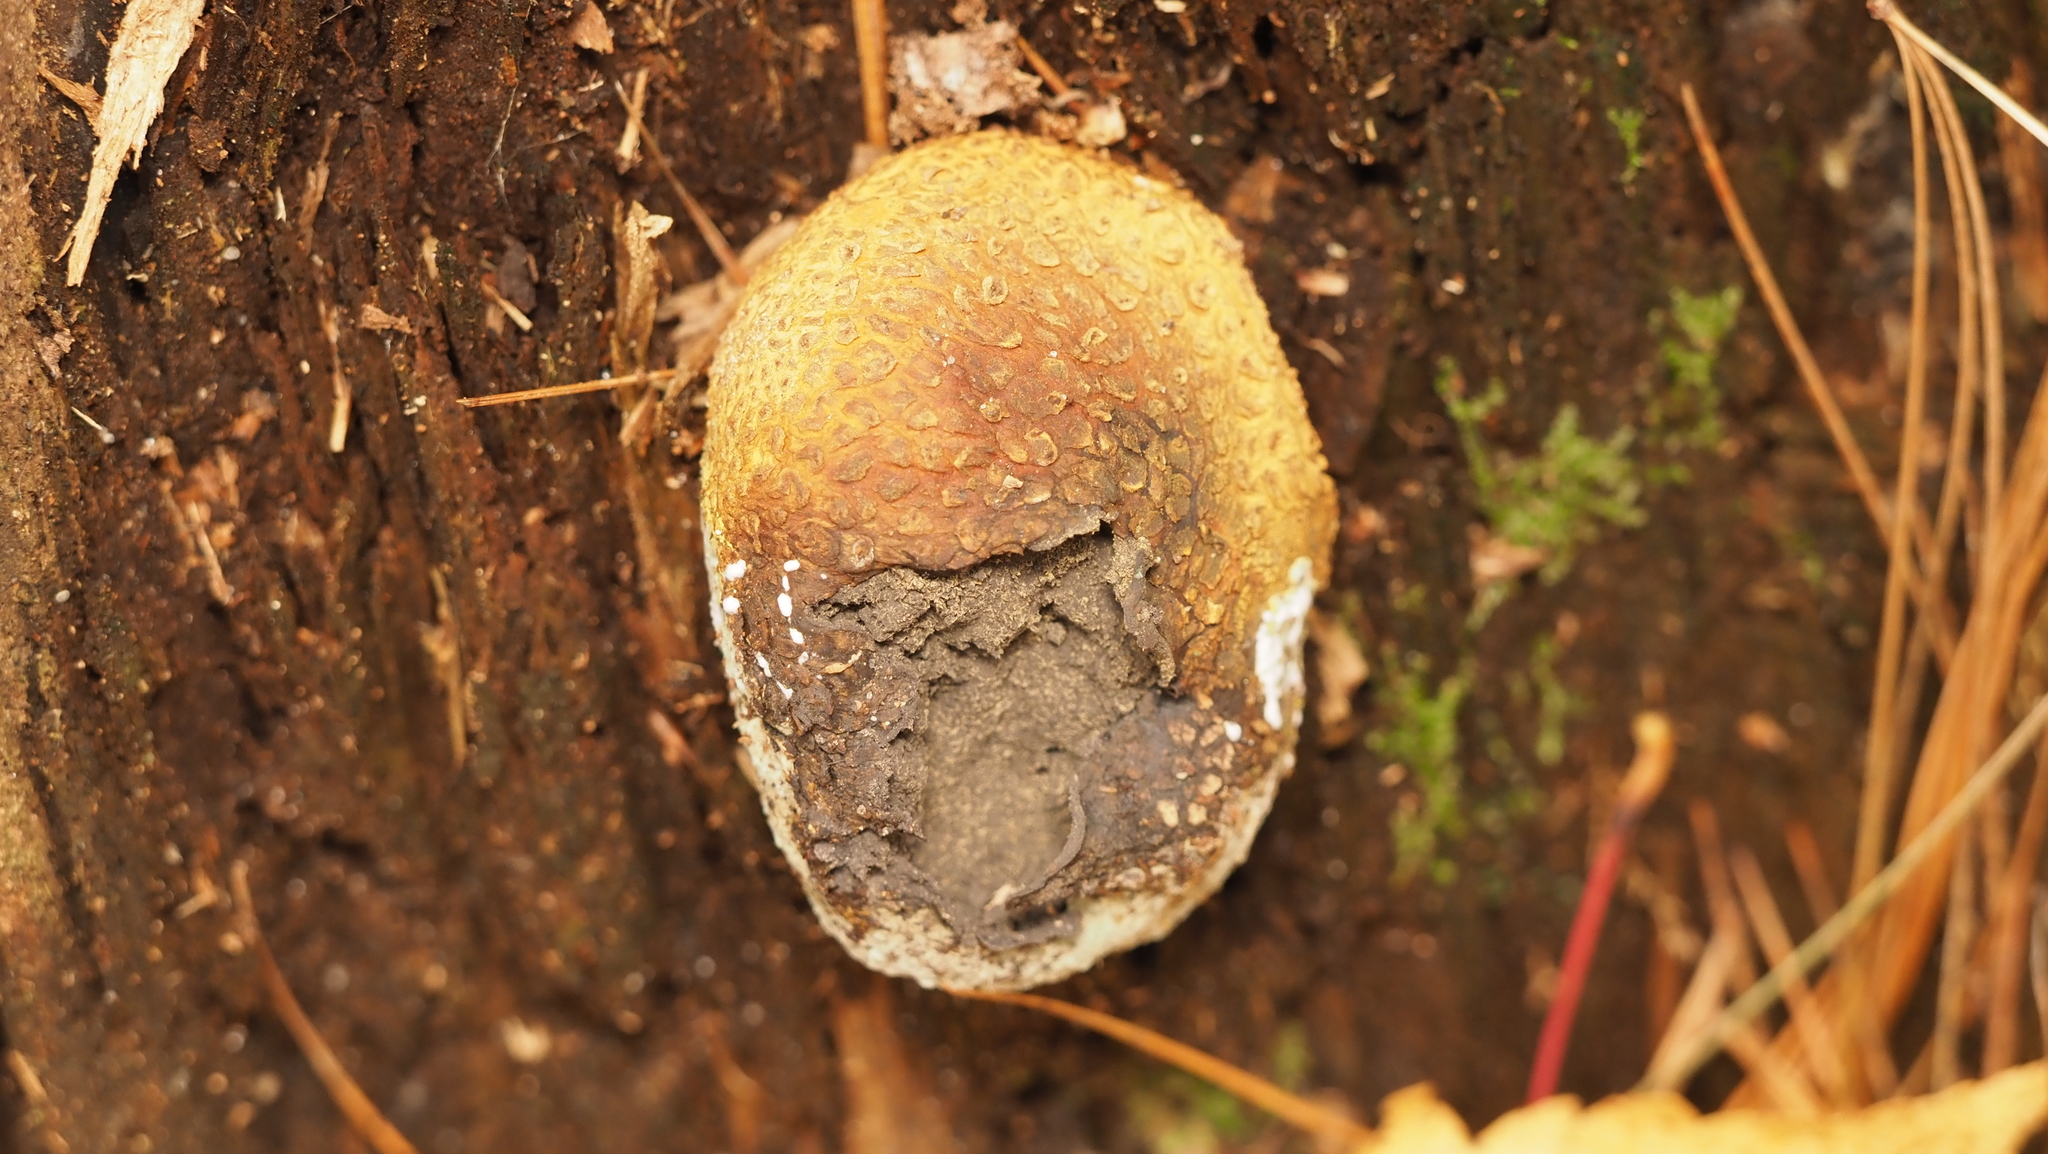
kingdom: Fungi
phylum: Basidiomycota
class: Agaricomycetes
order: Boletales
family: Sclerodermataceae
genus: Scleroderma
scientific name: Scleroderma citrinum
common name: Common earthball
